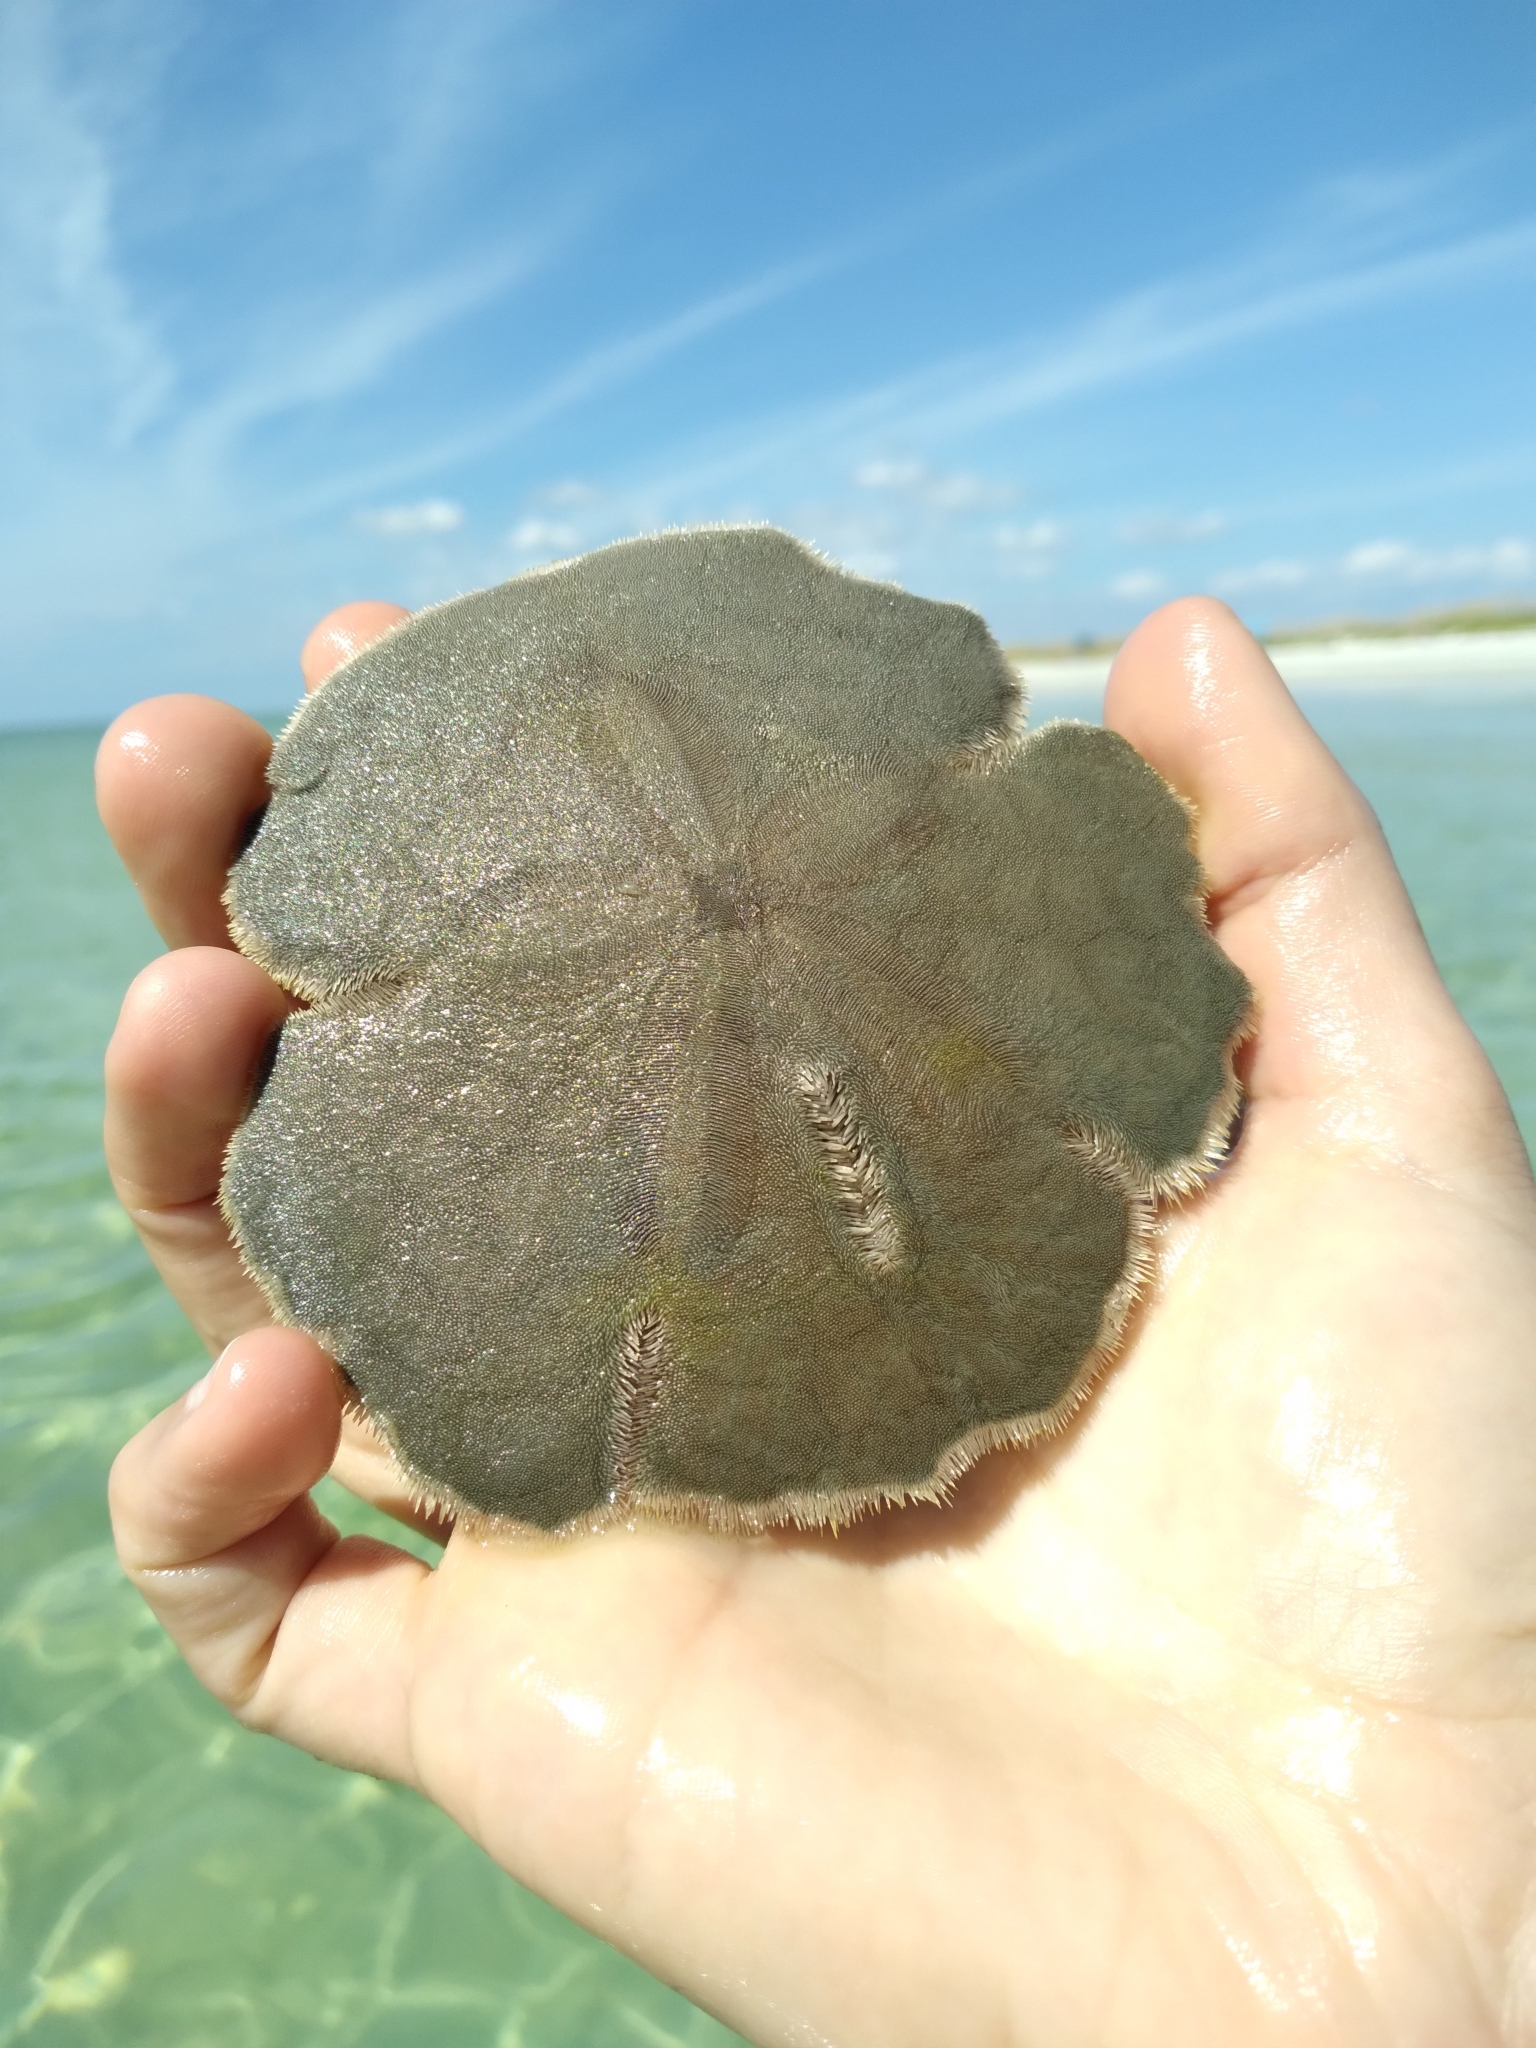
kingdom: Animalia
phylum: Echinodermata
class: Echinoidea
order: Echinolampadacea
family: Mellitidae
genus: Mellita
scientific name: Mellita quinquiesperforata
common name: Sand dollar
